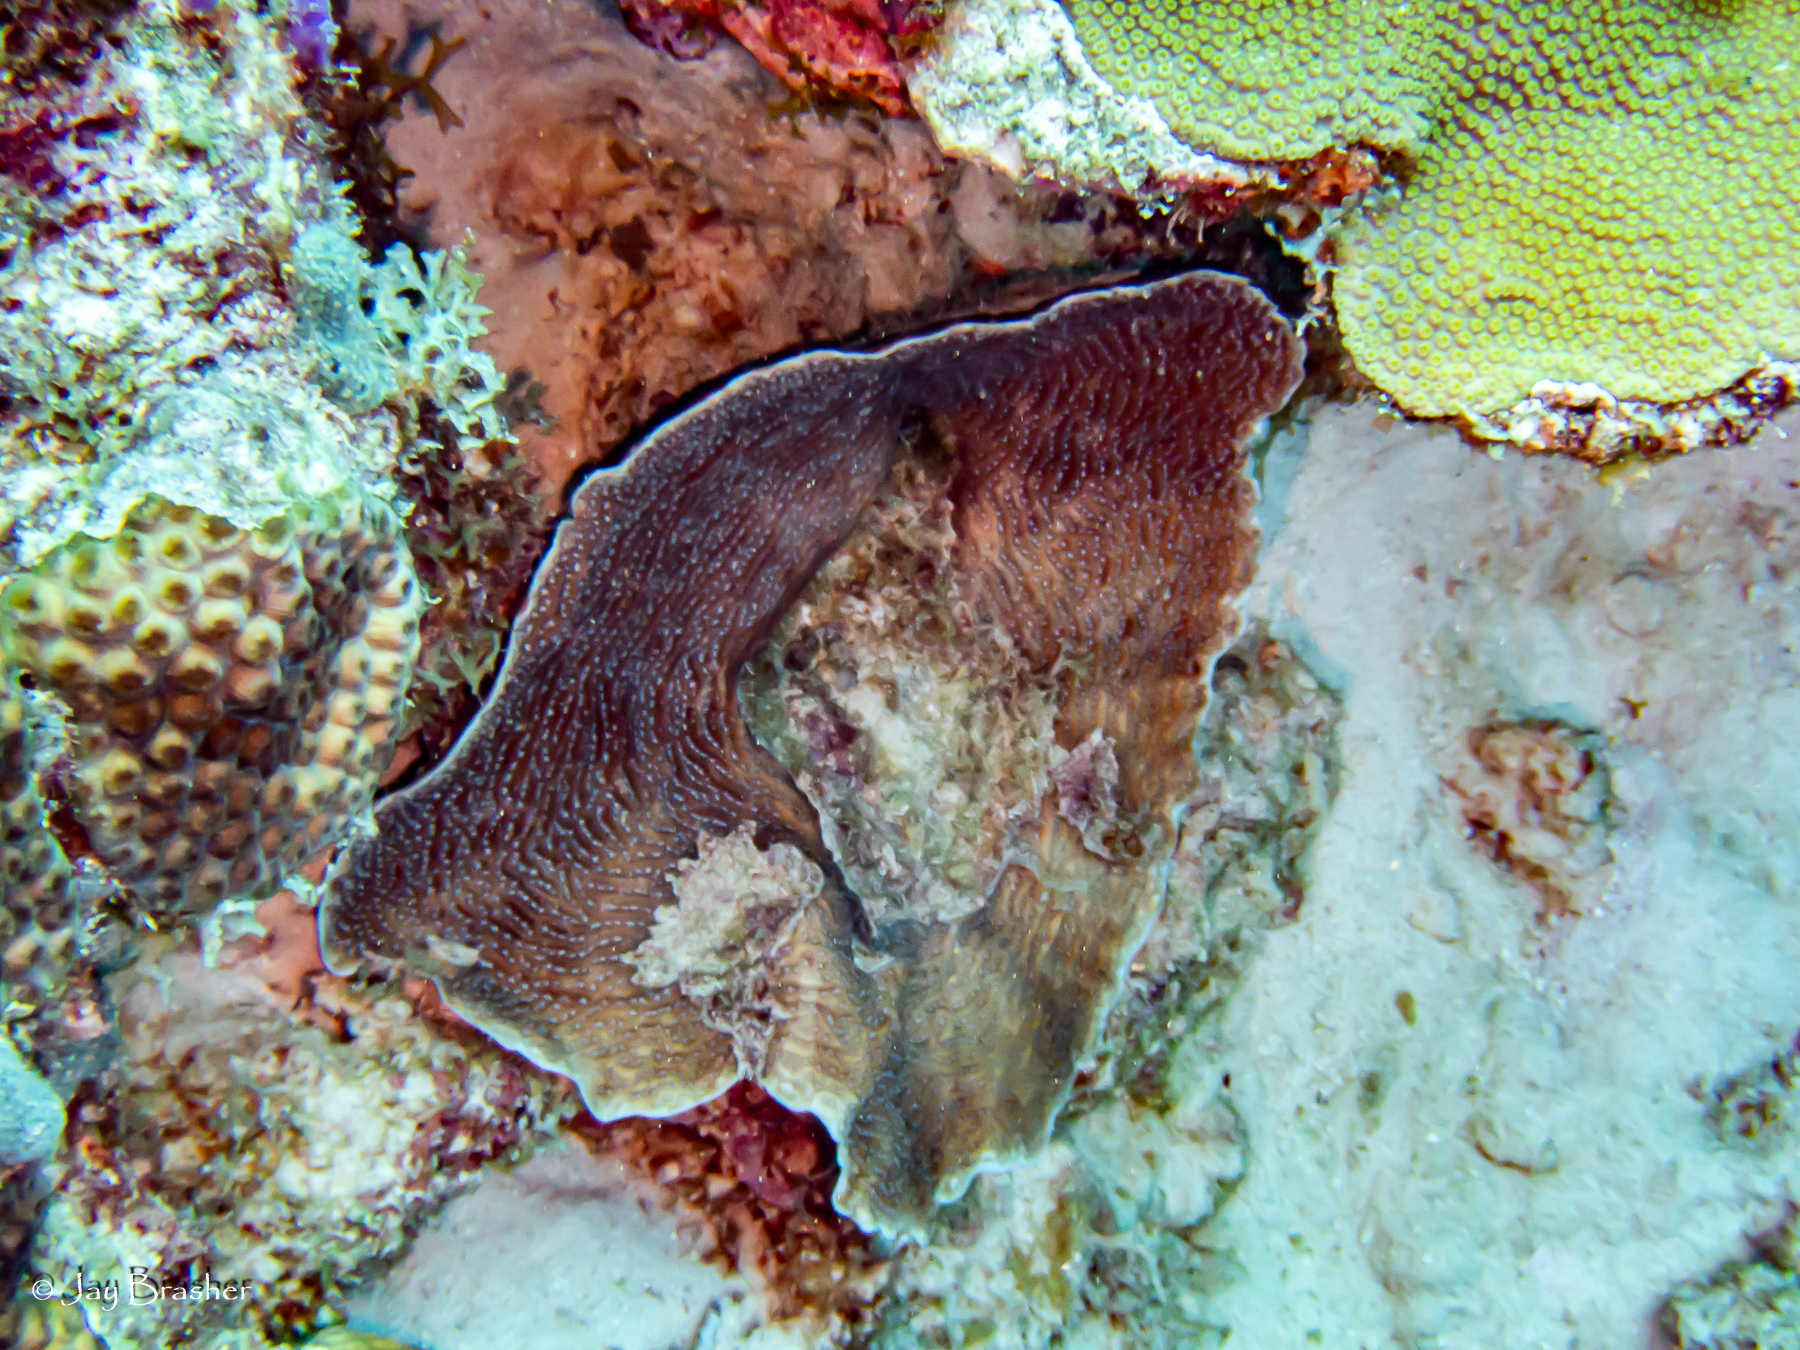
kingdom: Animalia
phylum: Cnidaria
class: Anthozoa
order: Scleractinia
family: Agariciidae
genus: Agaricia
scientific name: Agaricia lamarcki
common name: Lamarck's sheet coral
